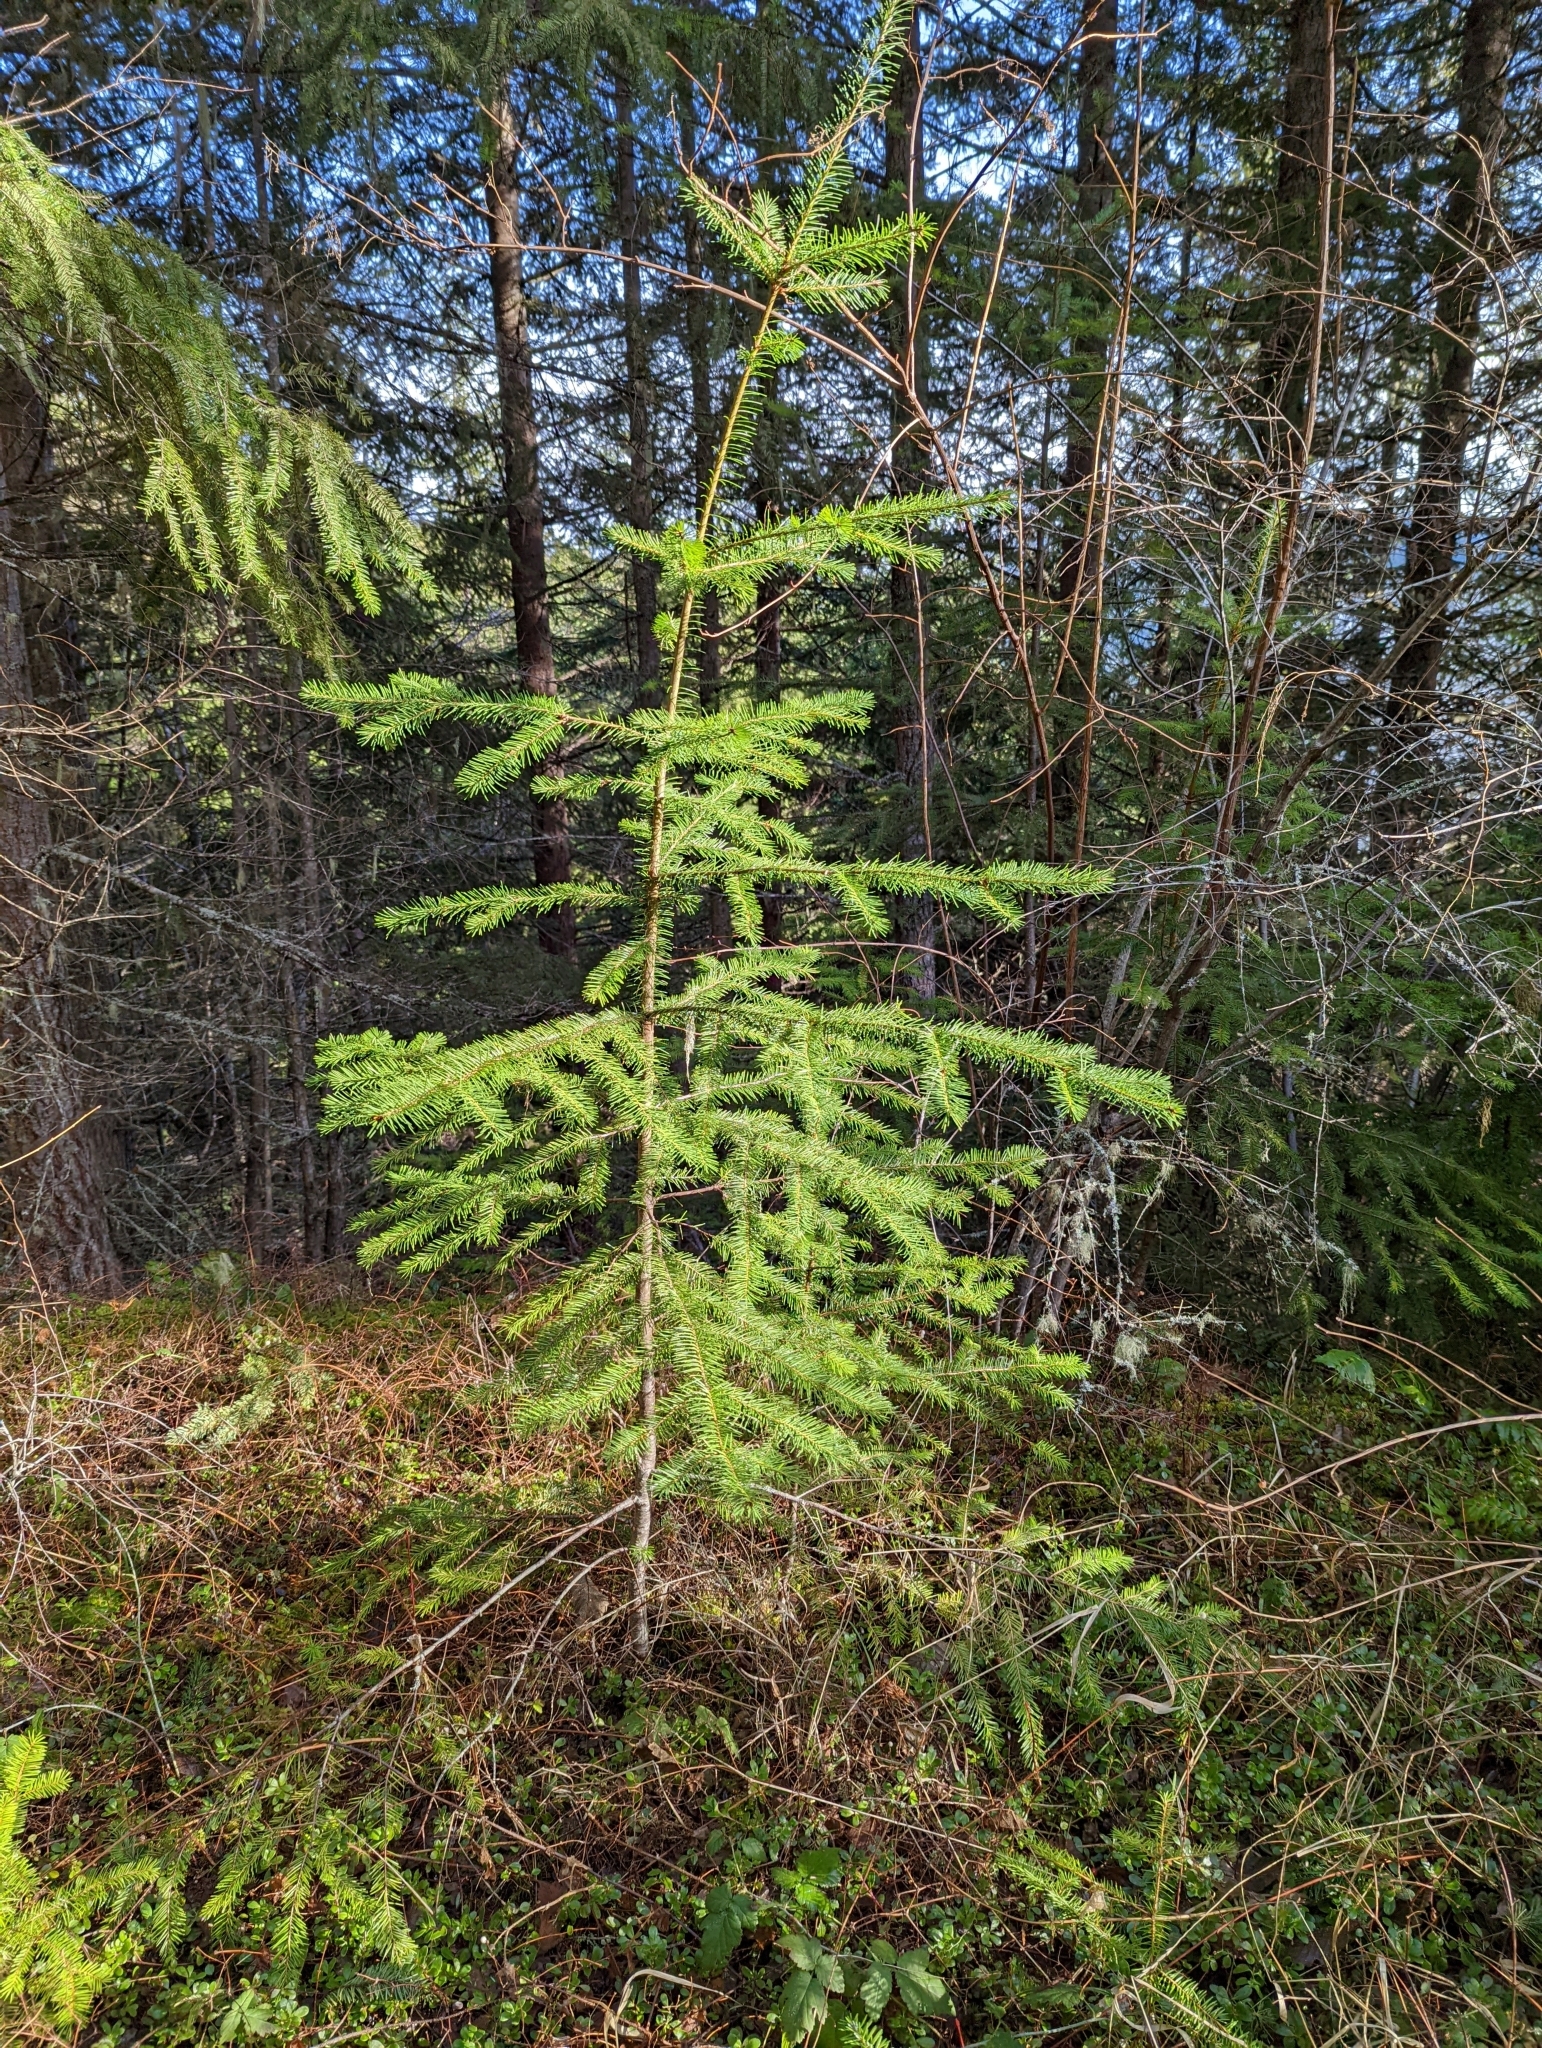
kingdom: Plantae
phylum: Tracheophyta
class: Pinopsida
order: Pinales
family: Pinaceae
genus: Pseudotsuga
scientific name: Pseudotsuga menziesii
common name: Douglas fir
